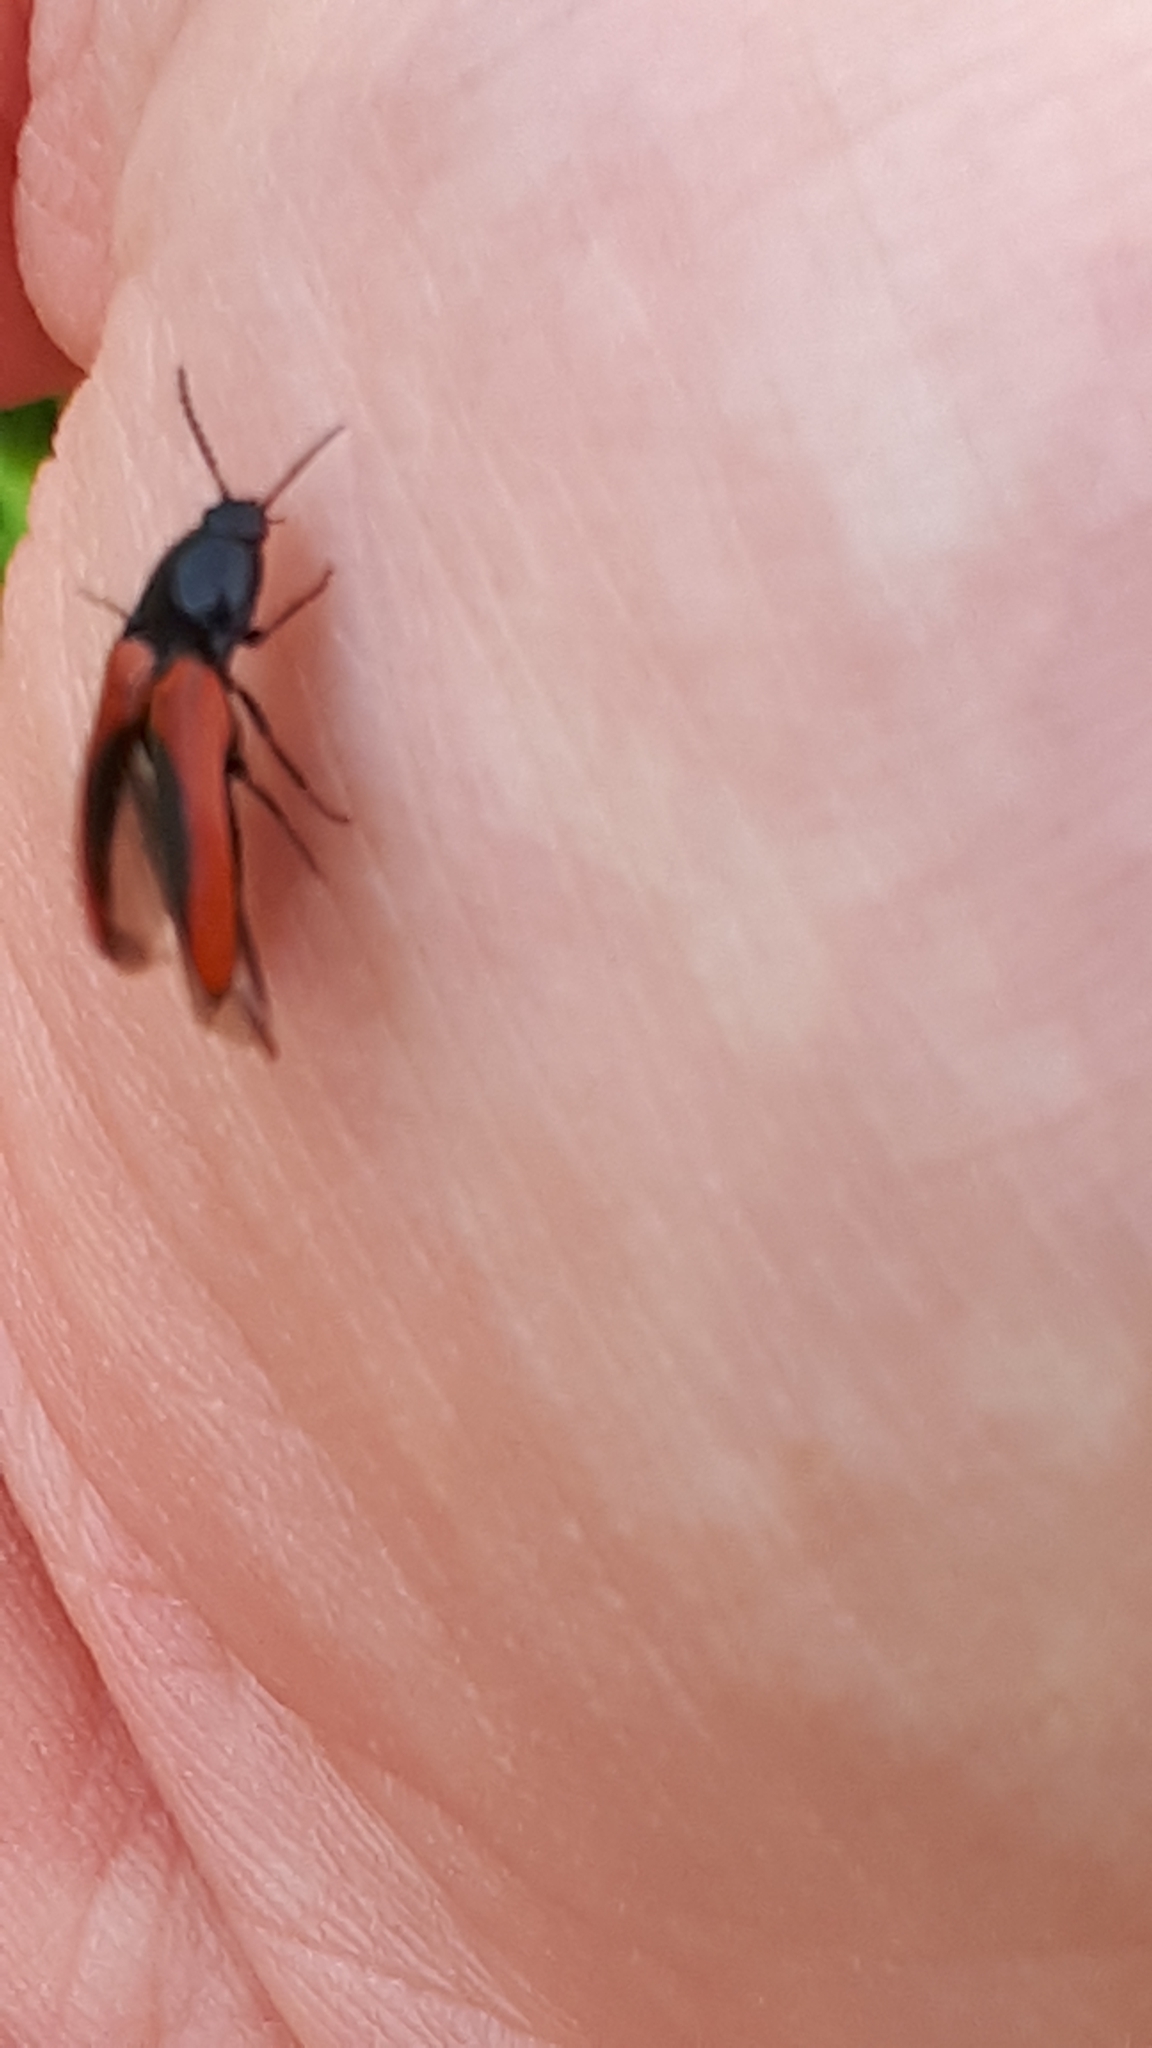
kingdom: Animalia
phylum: Arthropoda
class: Insecta
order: Coleoptera
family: Elateridae
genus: Ampedus
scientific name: Ampedus sanguinolentus
